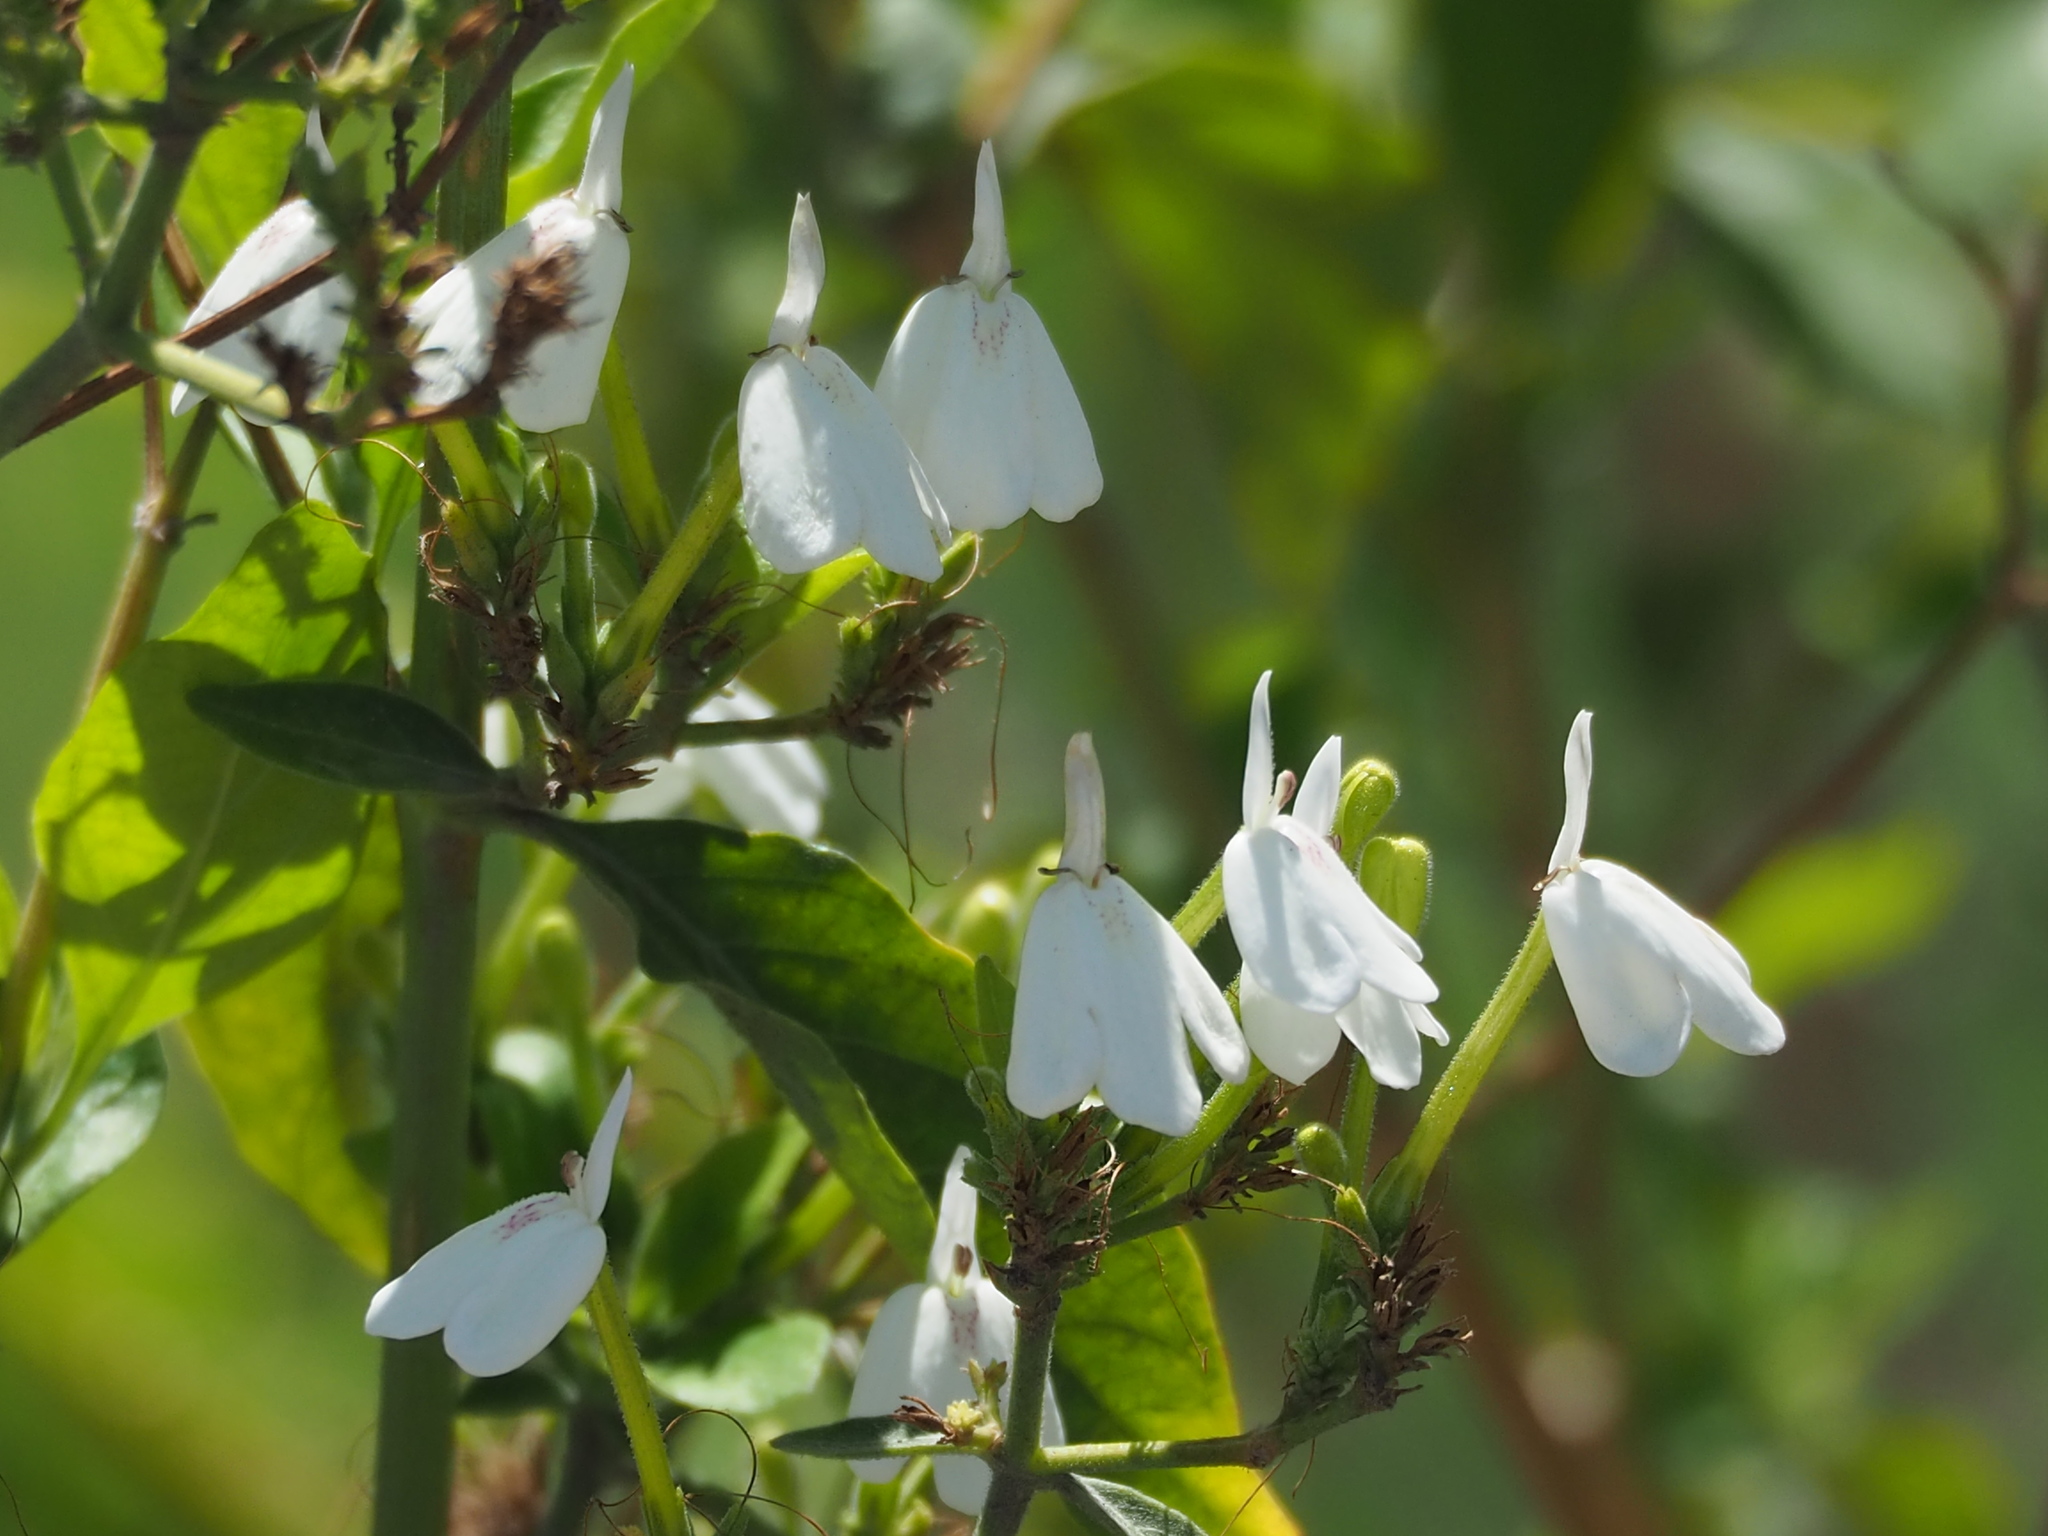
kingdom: Plantae
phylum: Tracheophyta
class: Magnoliopsida
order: Lamiales
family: Acanthaceae
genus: Rhinacanthus
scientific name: Rhinacanthus nasutus
